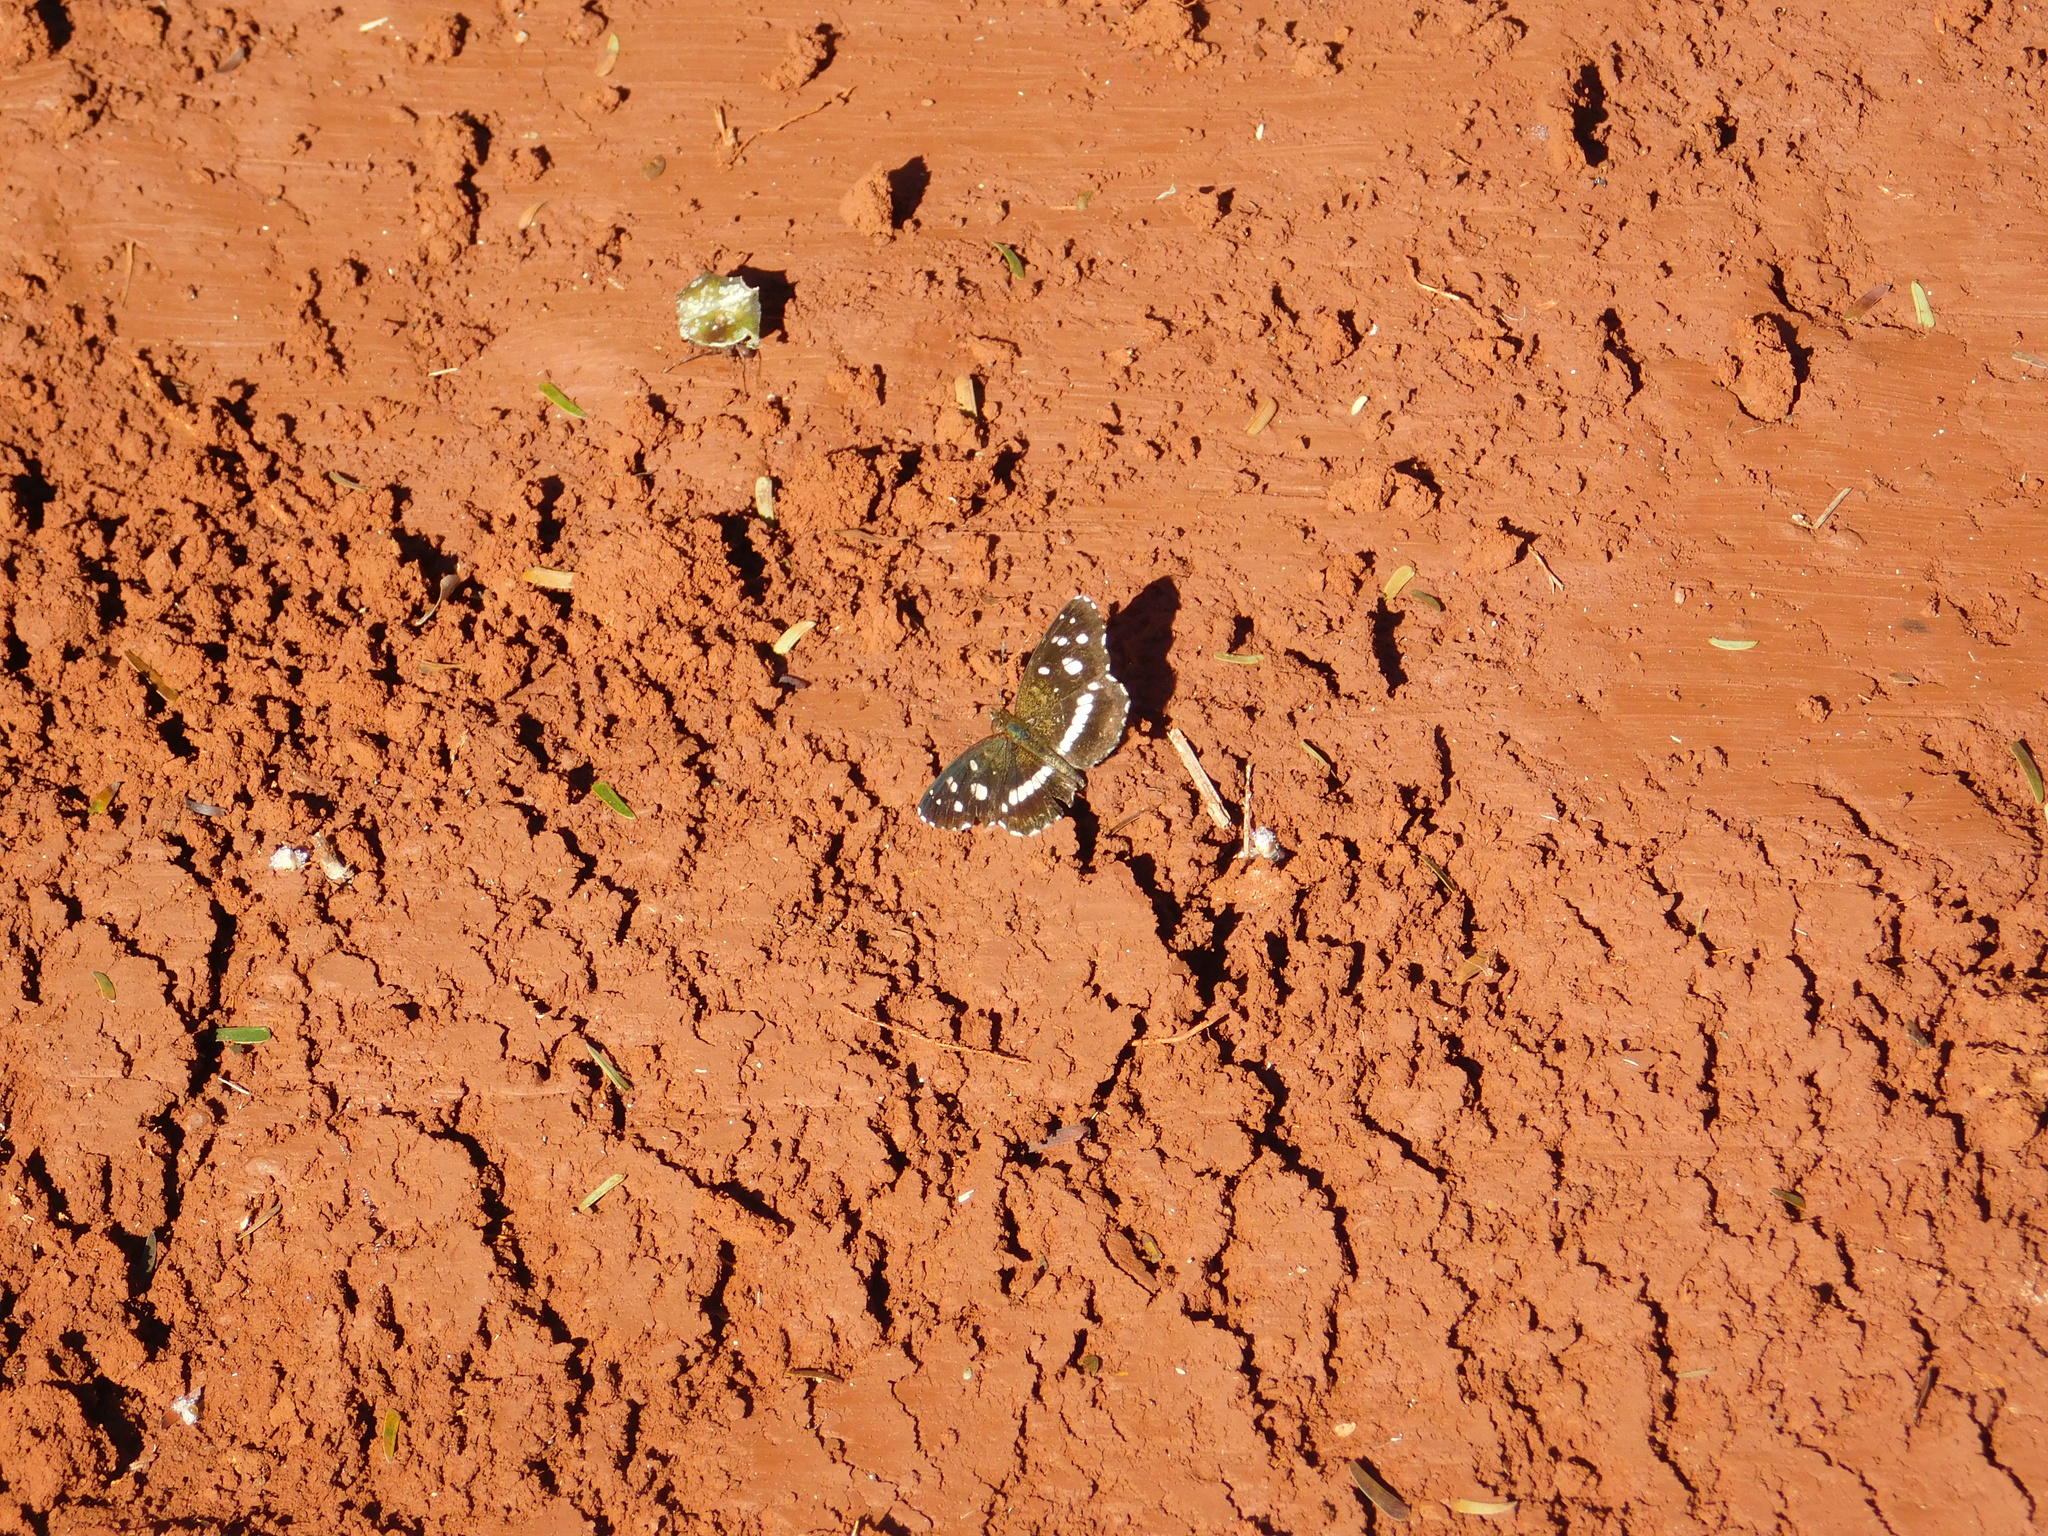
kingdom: Animalia
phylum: Arthropoda
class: Insecta
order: Lepidoptera
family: Nymphalidae
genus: Ortilia
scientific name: Ortilia ithra
